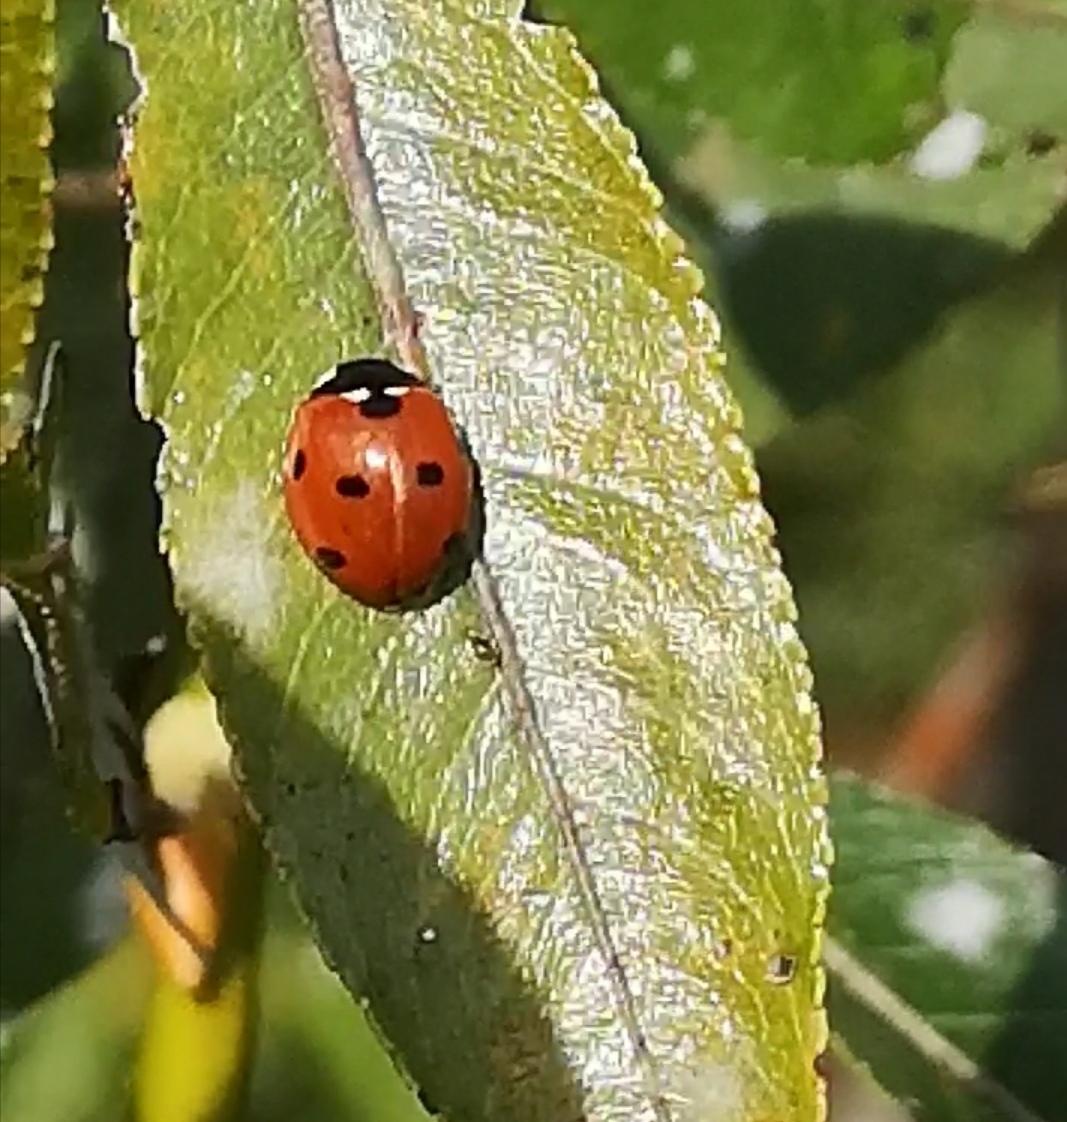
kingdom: Animalia
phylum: Arthropoda
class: Insecta
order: Coleoptera
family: Coccinellidae
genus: Coccinella
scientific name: Coccinella septempunctata
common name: Sevenspotted lady beetle
